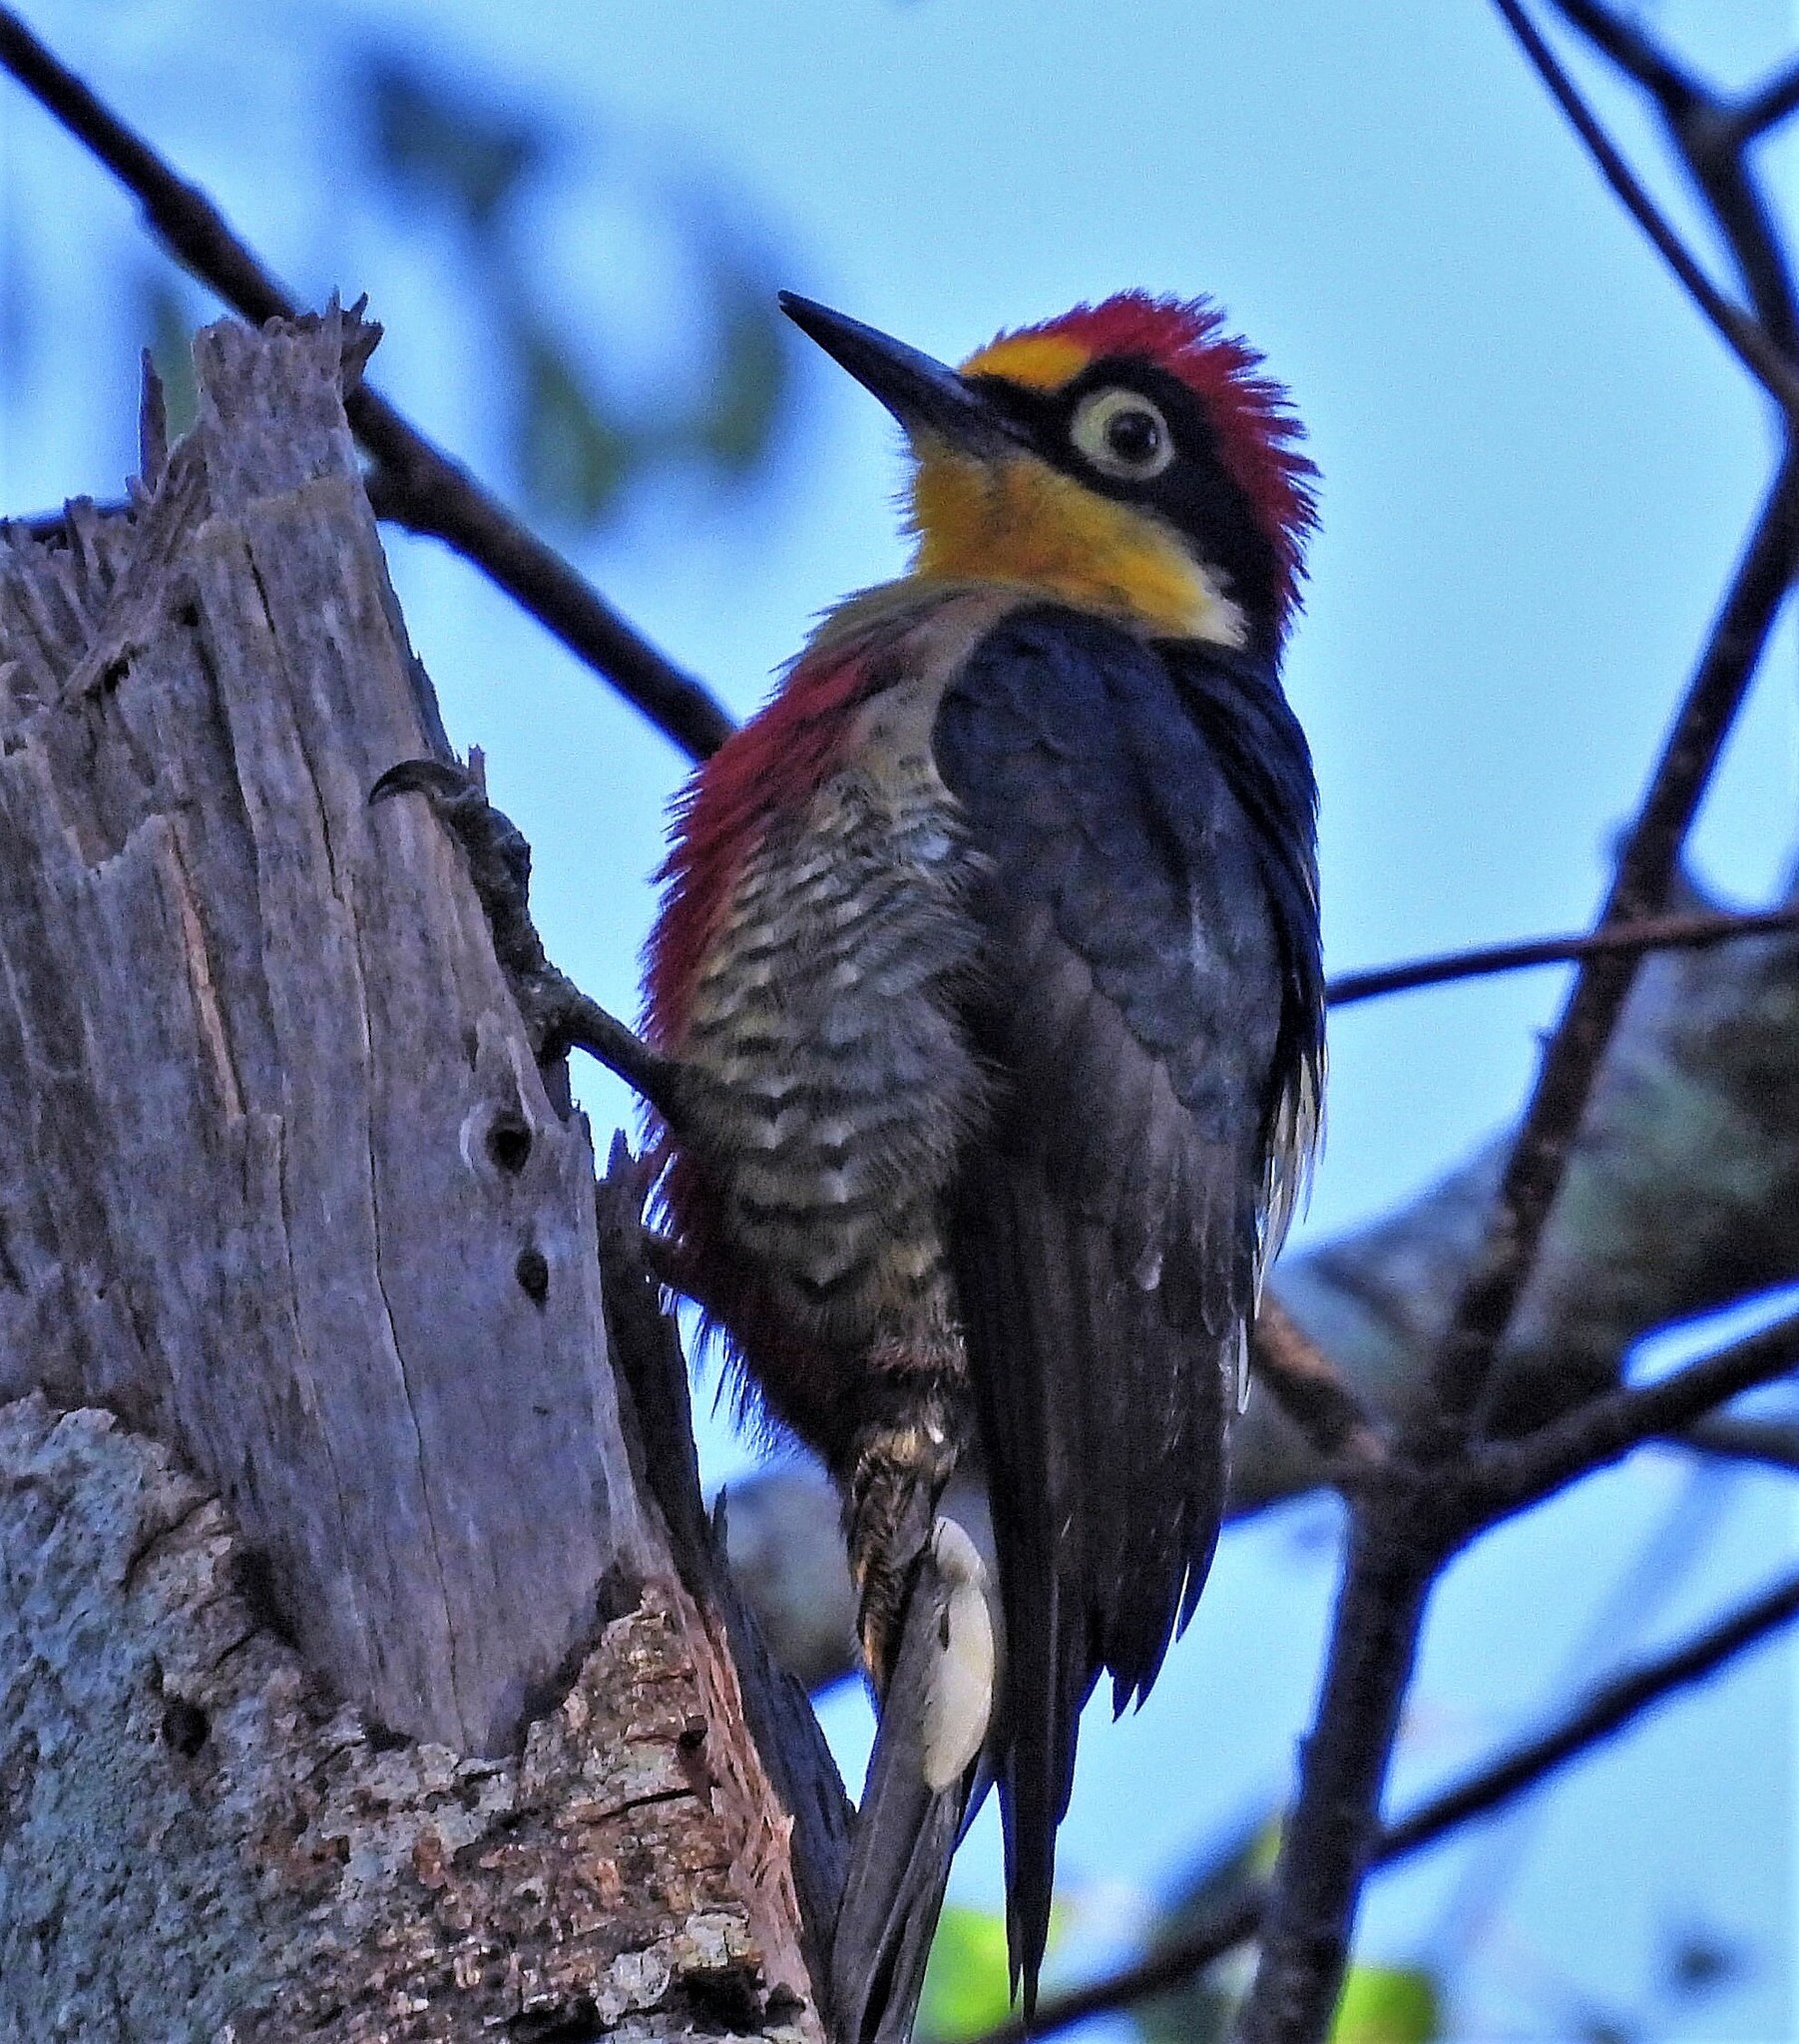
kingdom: Animalia
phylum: Chordata
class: Aves
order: Piciformes
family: Picidae
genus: Melanerpes
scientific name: Melanerpes flavifrons
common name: Yellow-fronted woodpecker
